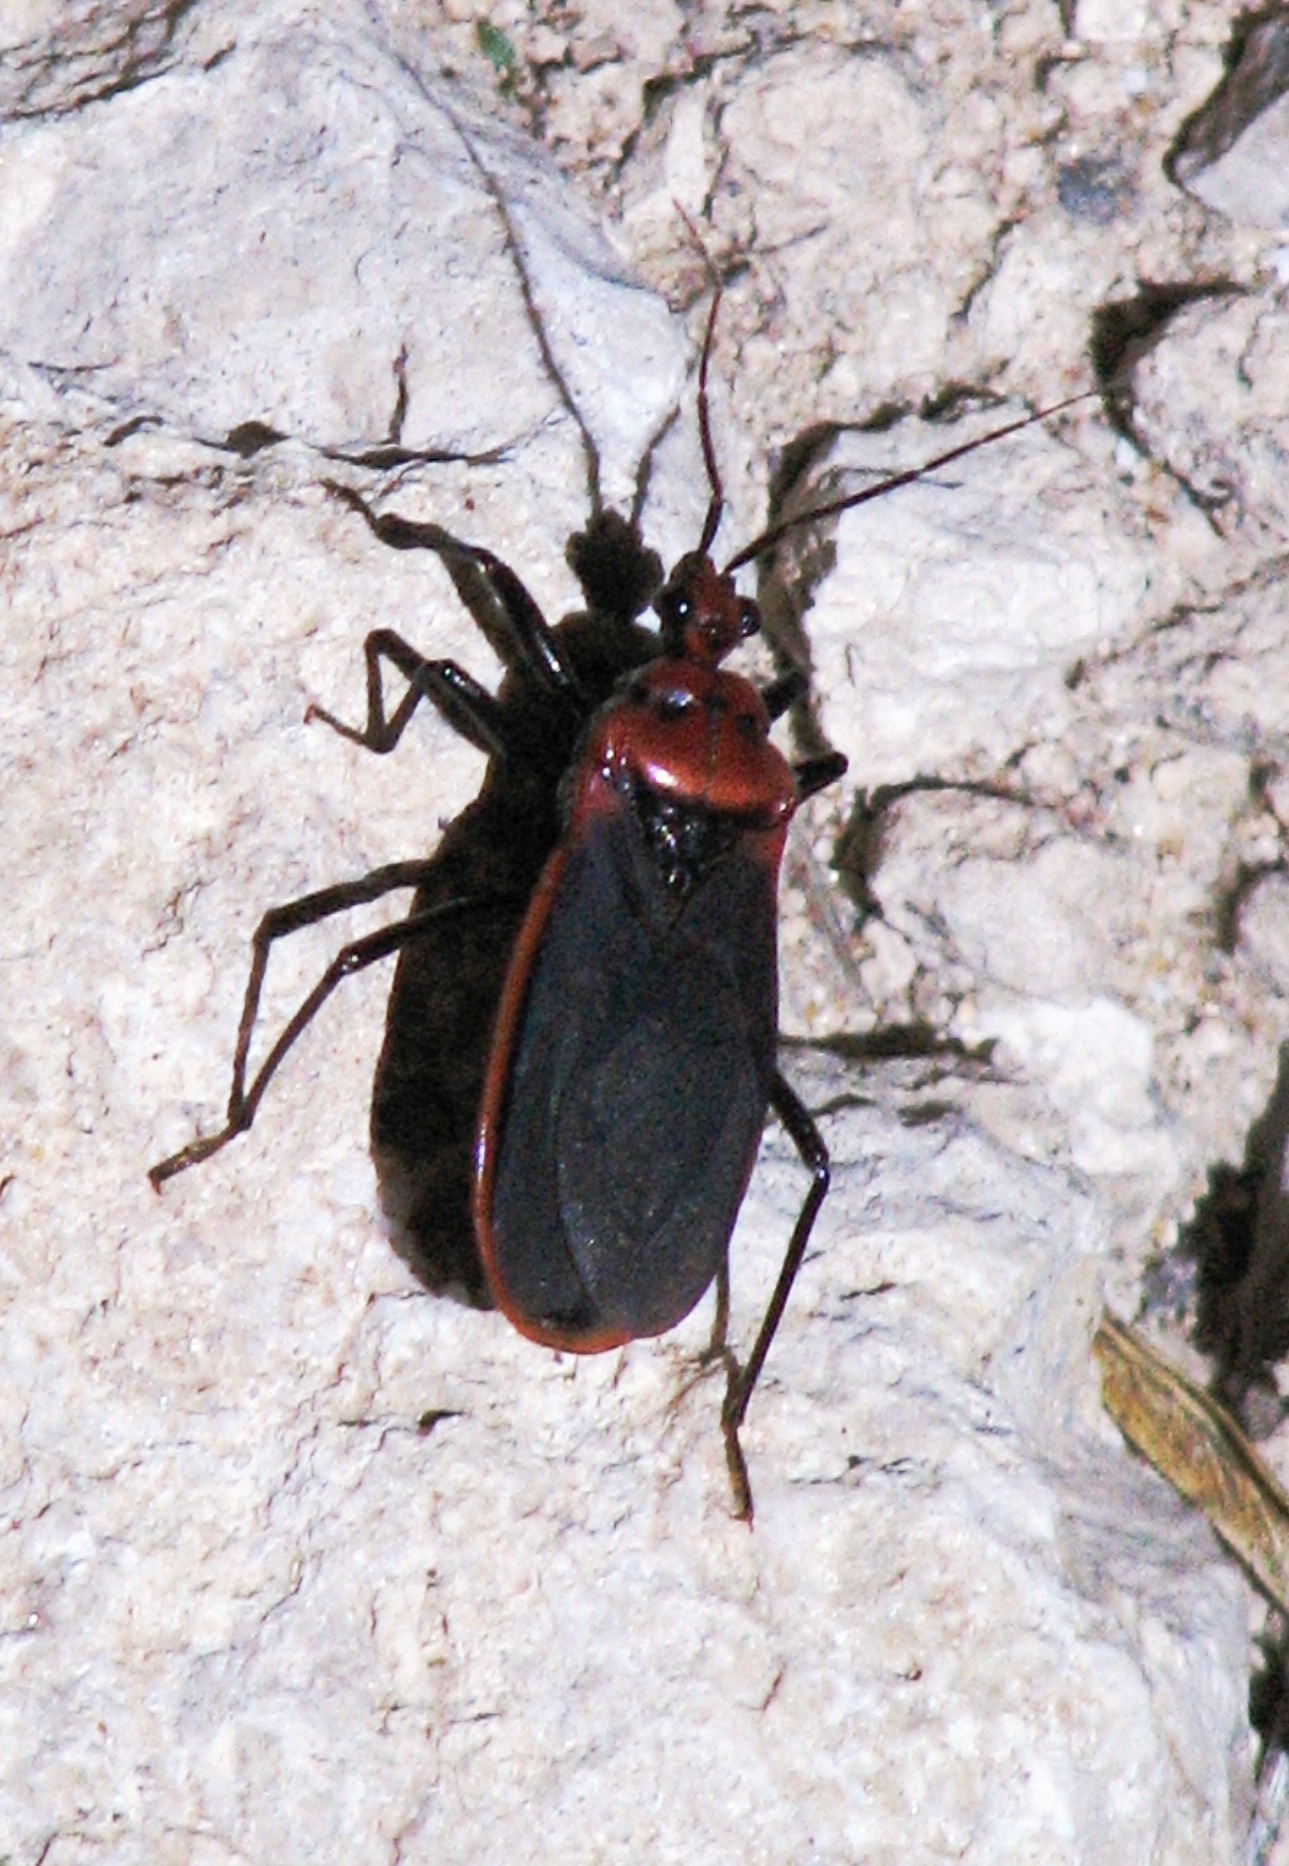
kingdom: Animalia
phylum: Arthropoda
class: Insecta
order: Hemiptera
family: Reduviidae
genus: Rhiginia
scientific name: Rhiginia cinctiventris
